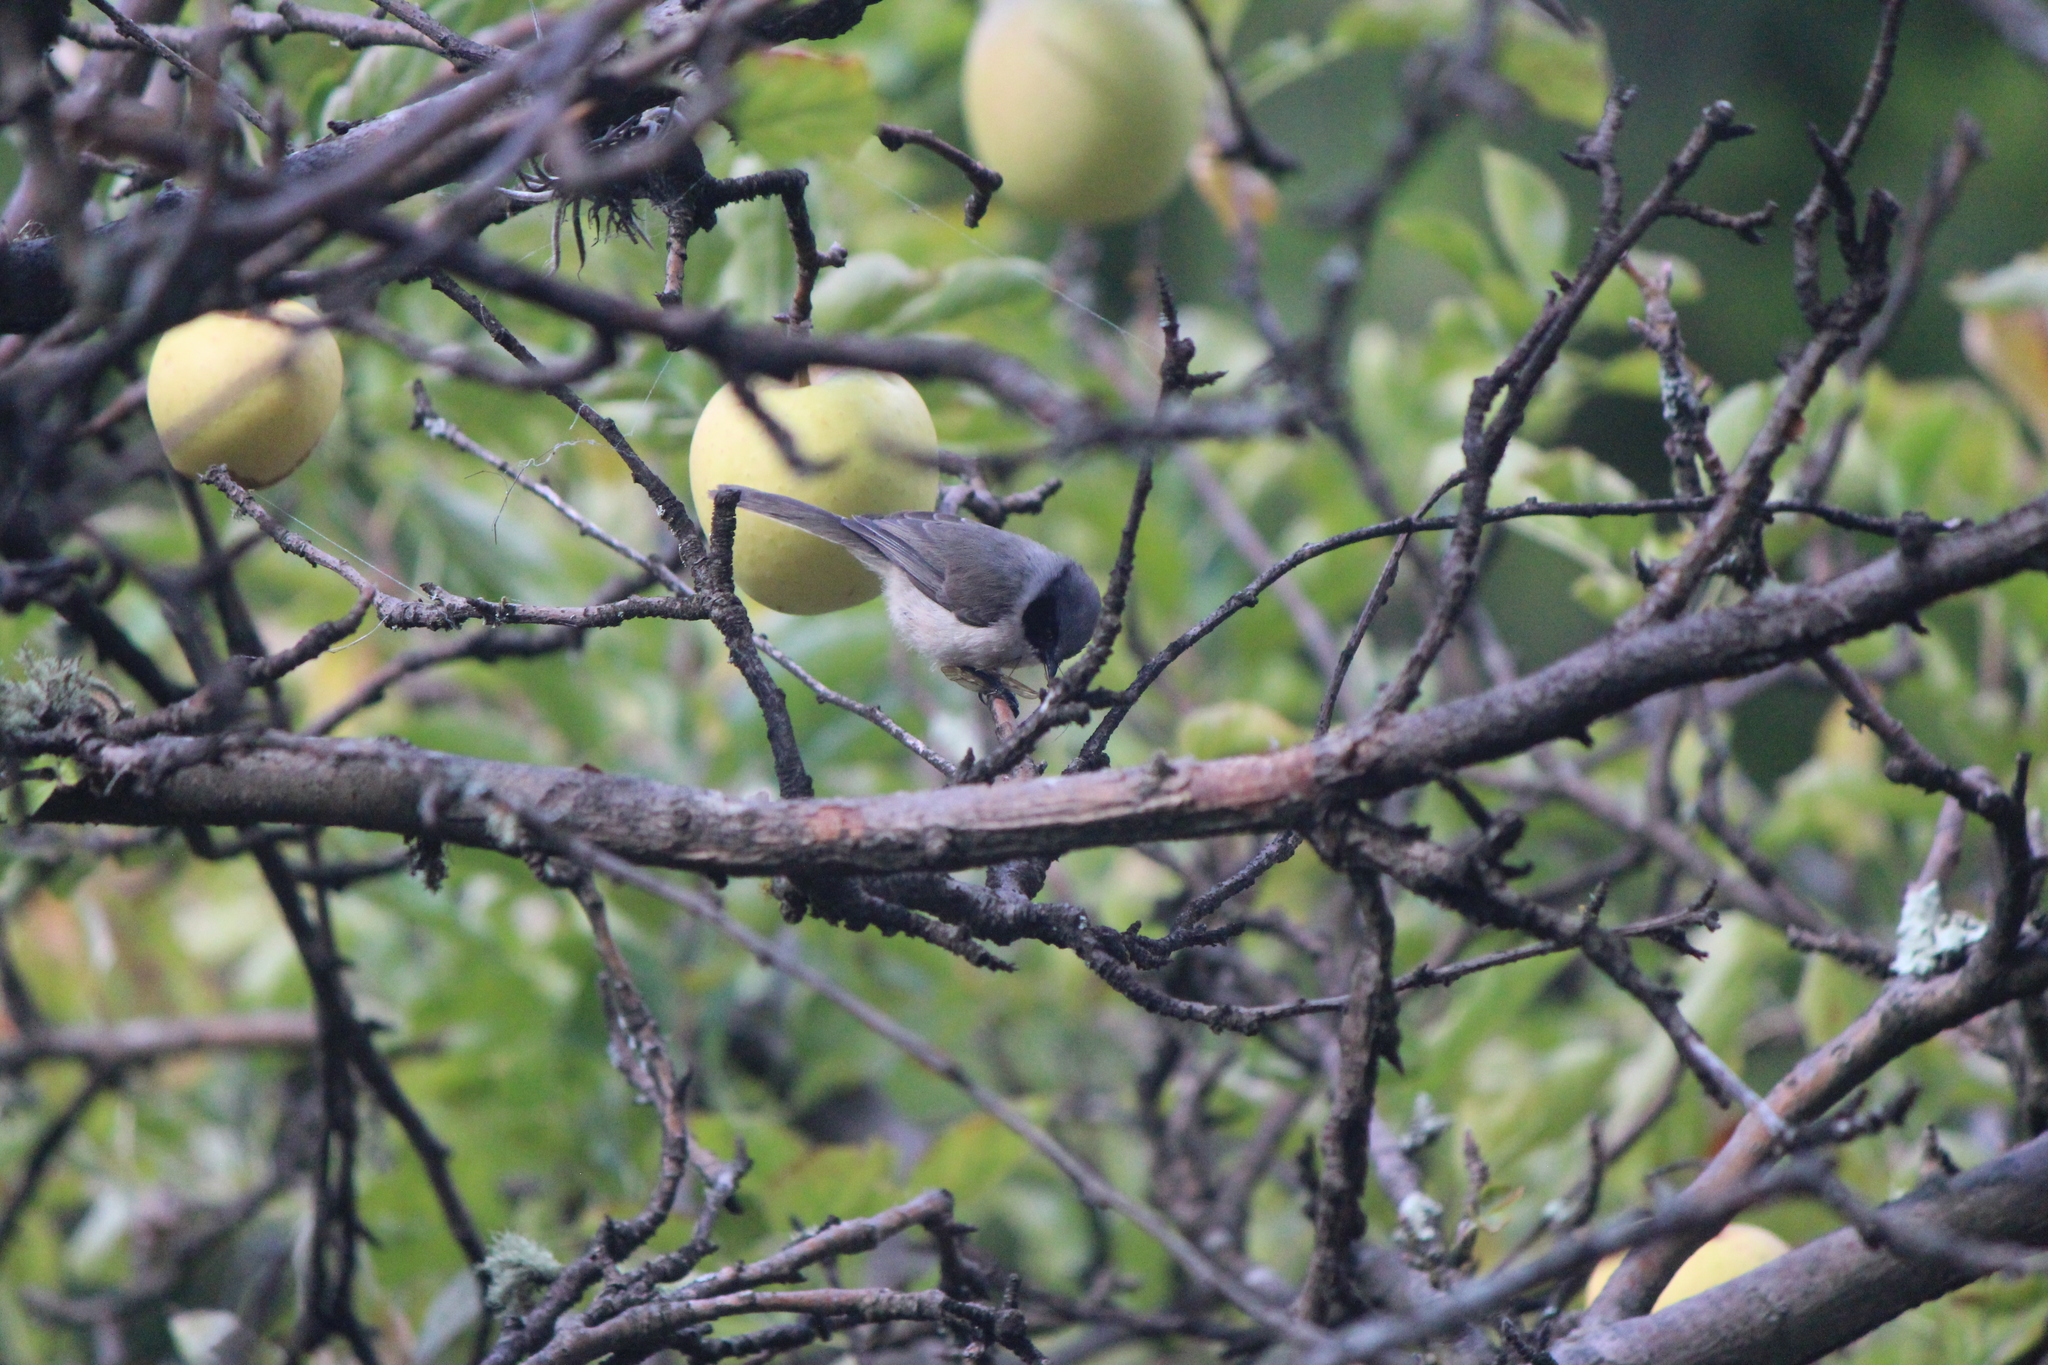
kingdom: Animalia
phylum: Chordata
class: Aves
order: Passeriformes
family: Aegithalidae
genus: Psaltriparus
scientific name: Psaltriparus minimus
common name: American bushtit
